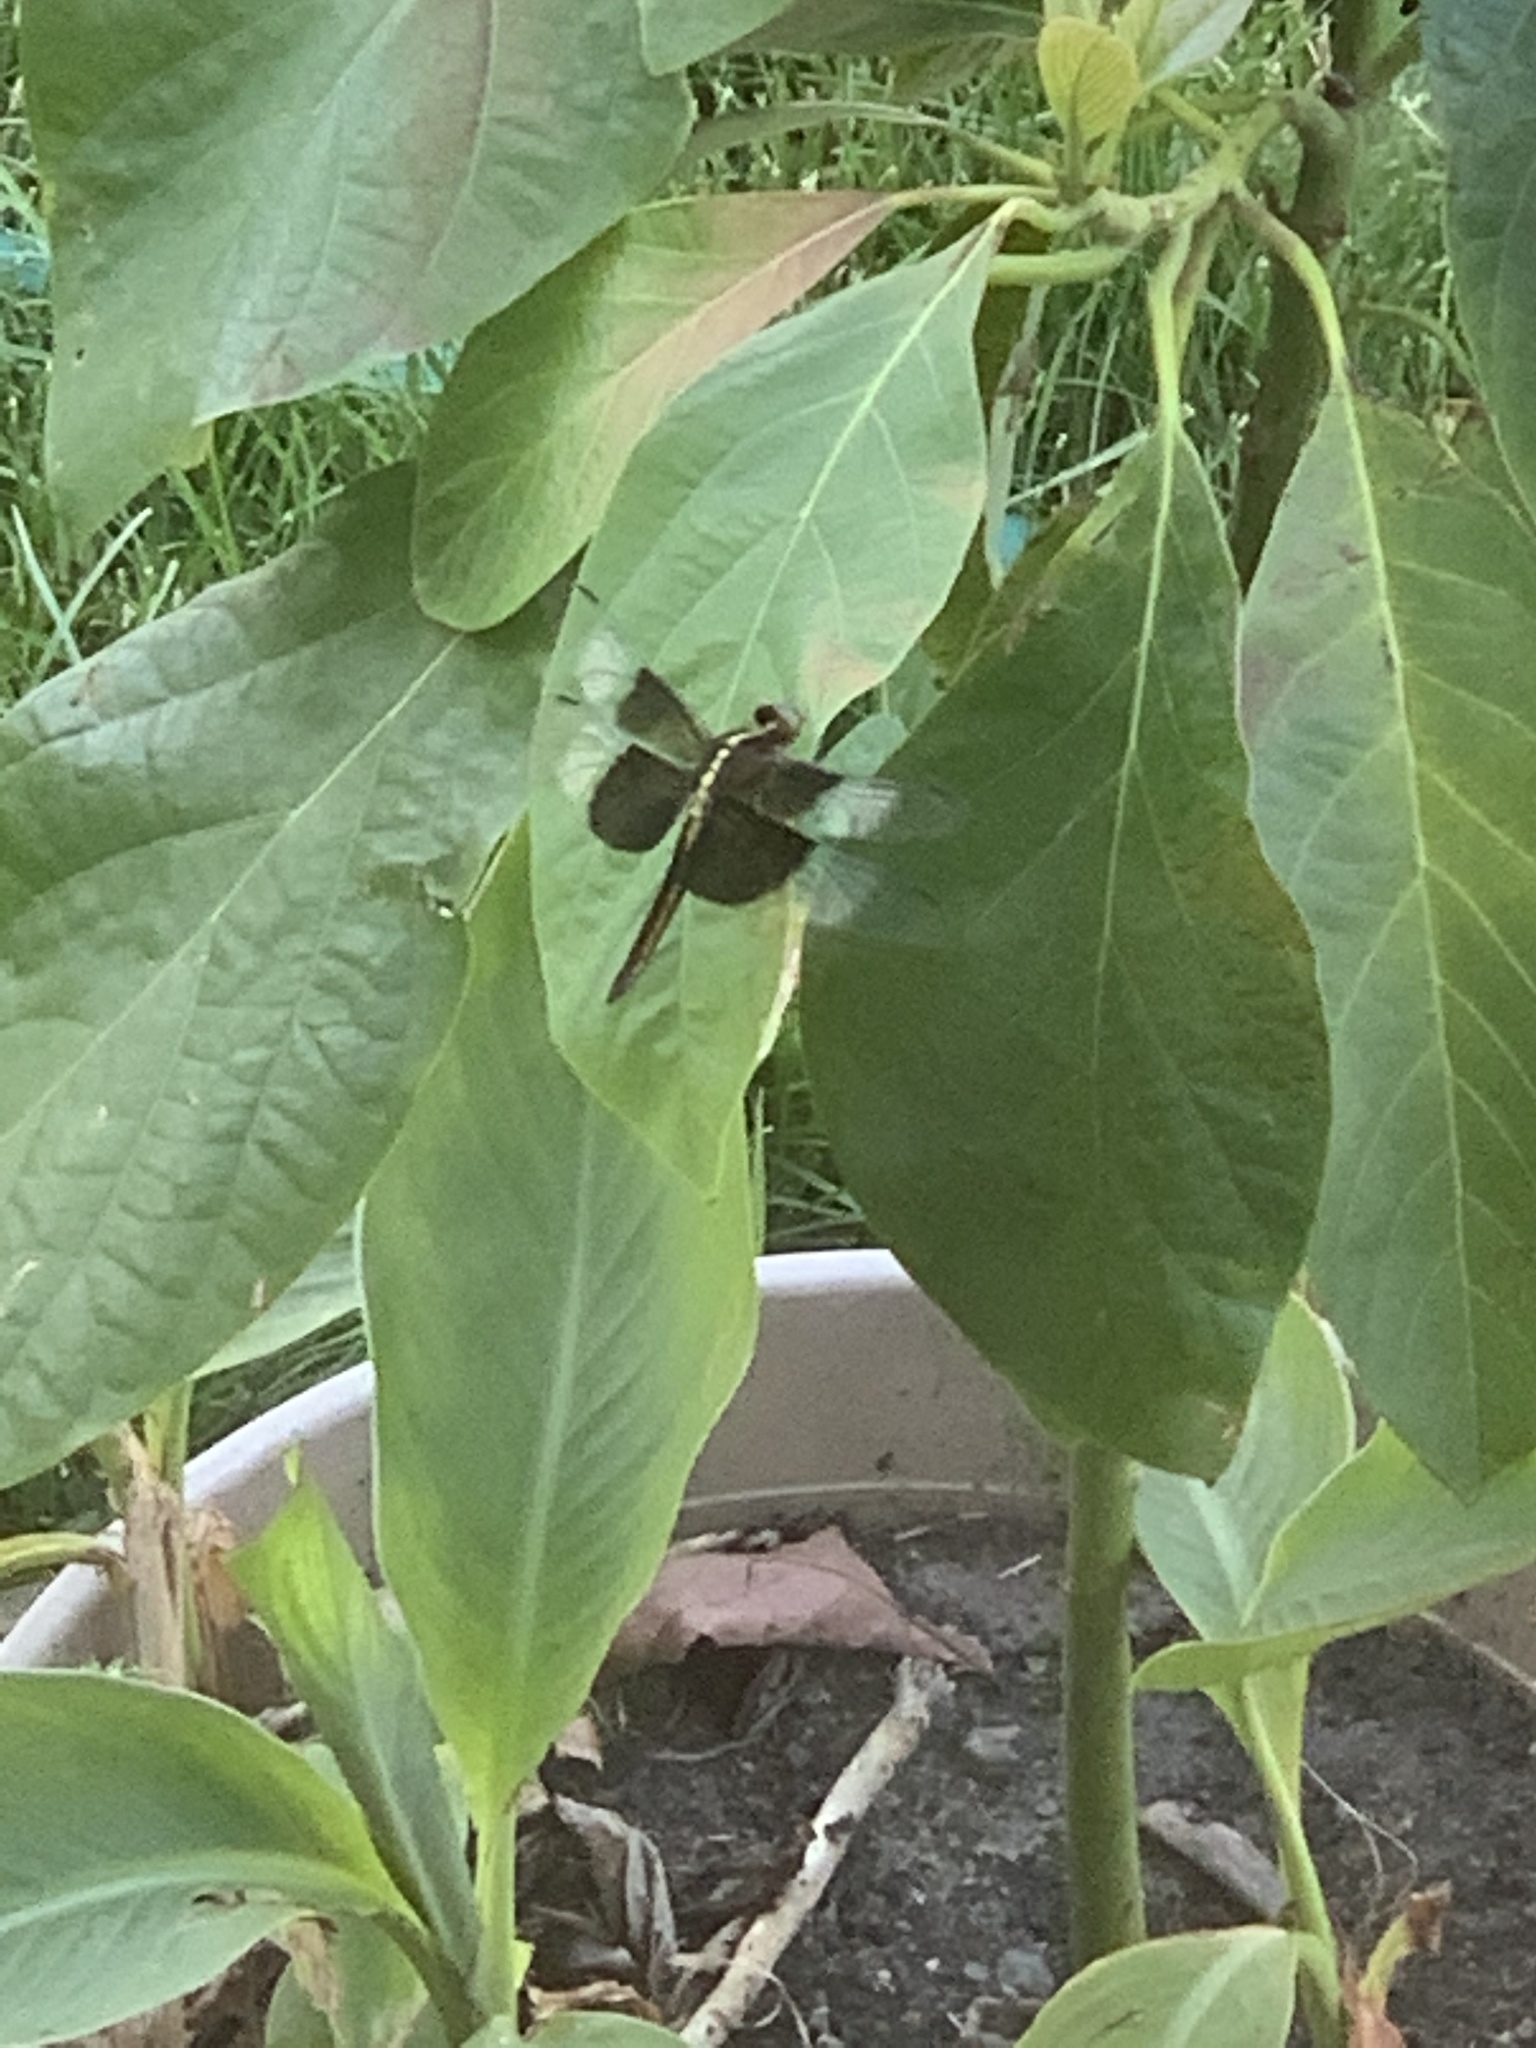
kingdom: Animalia
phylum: Arthropoda
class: Insecta
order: Odonata
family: Libellulidae
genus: Libellula
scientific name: Libellula luctuosa
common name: Widow skimmer
